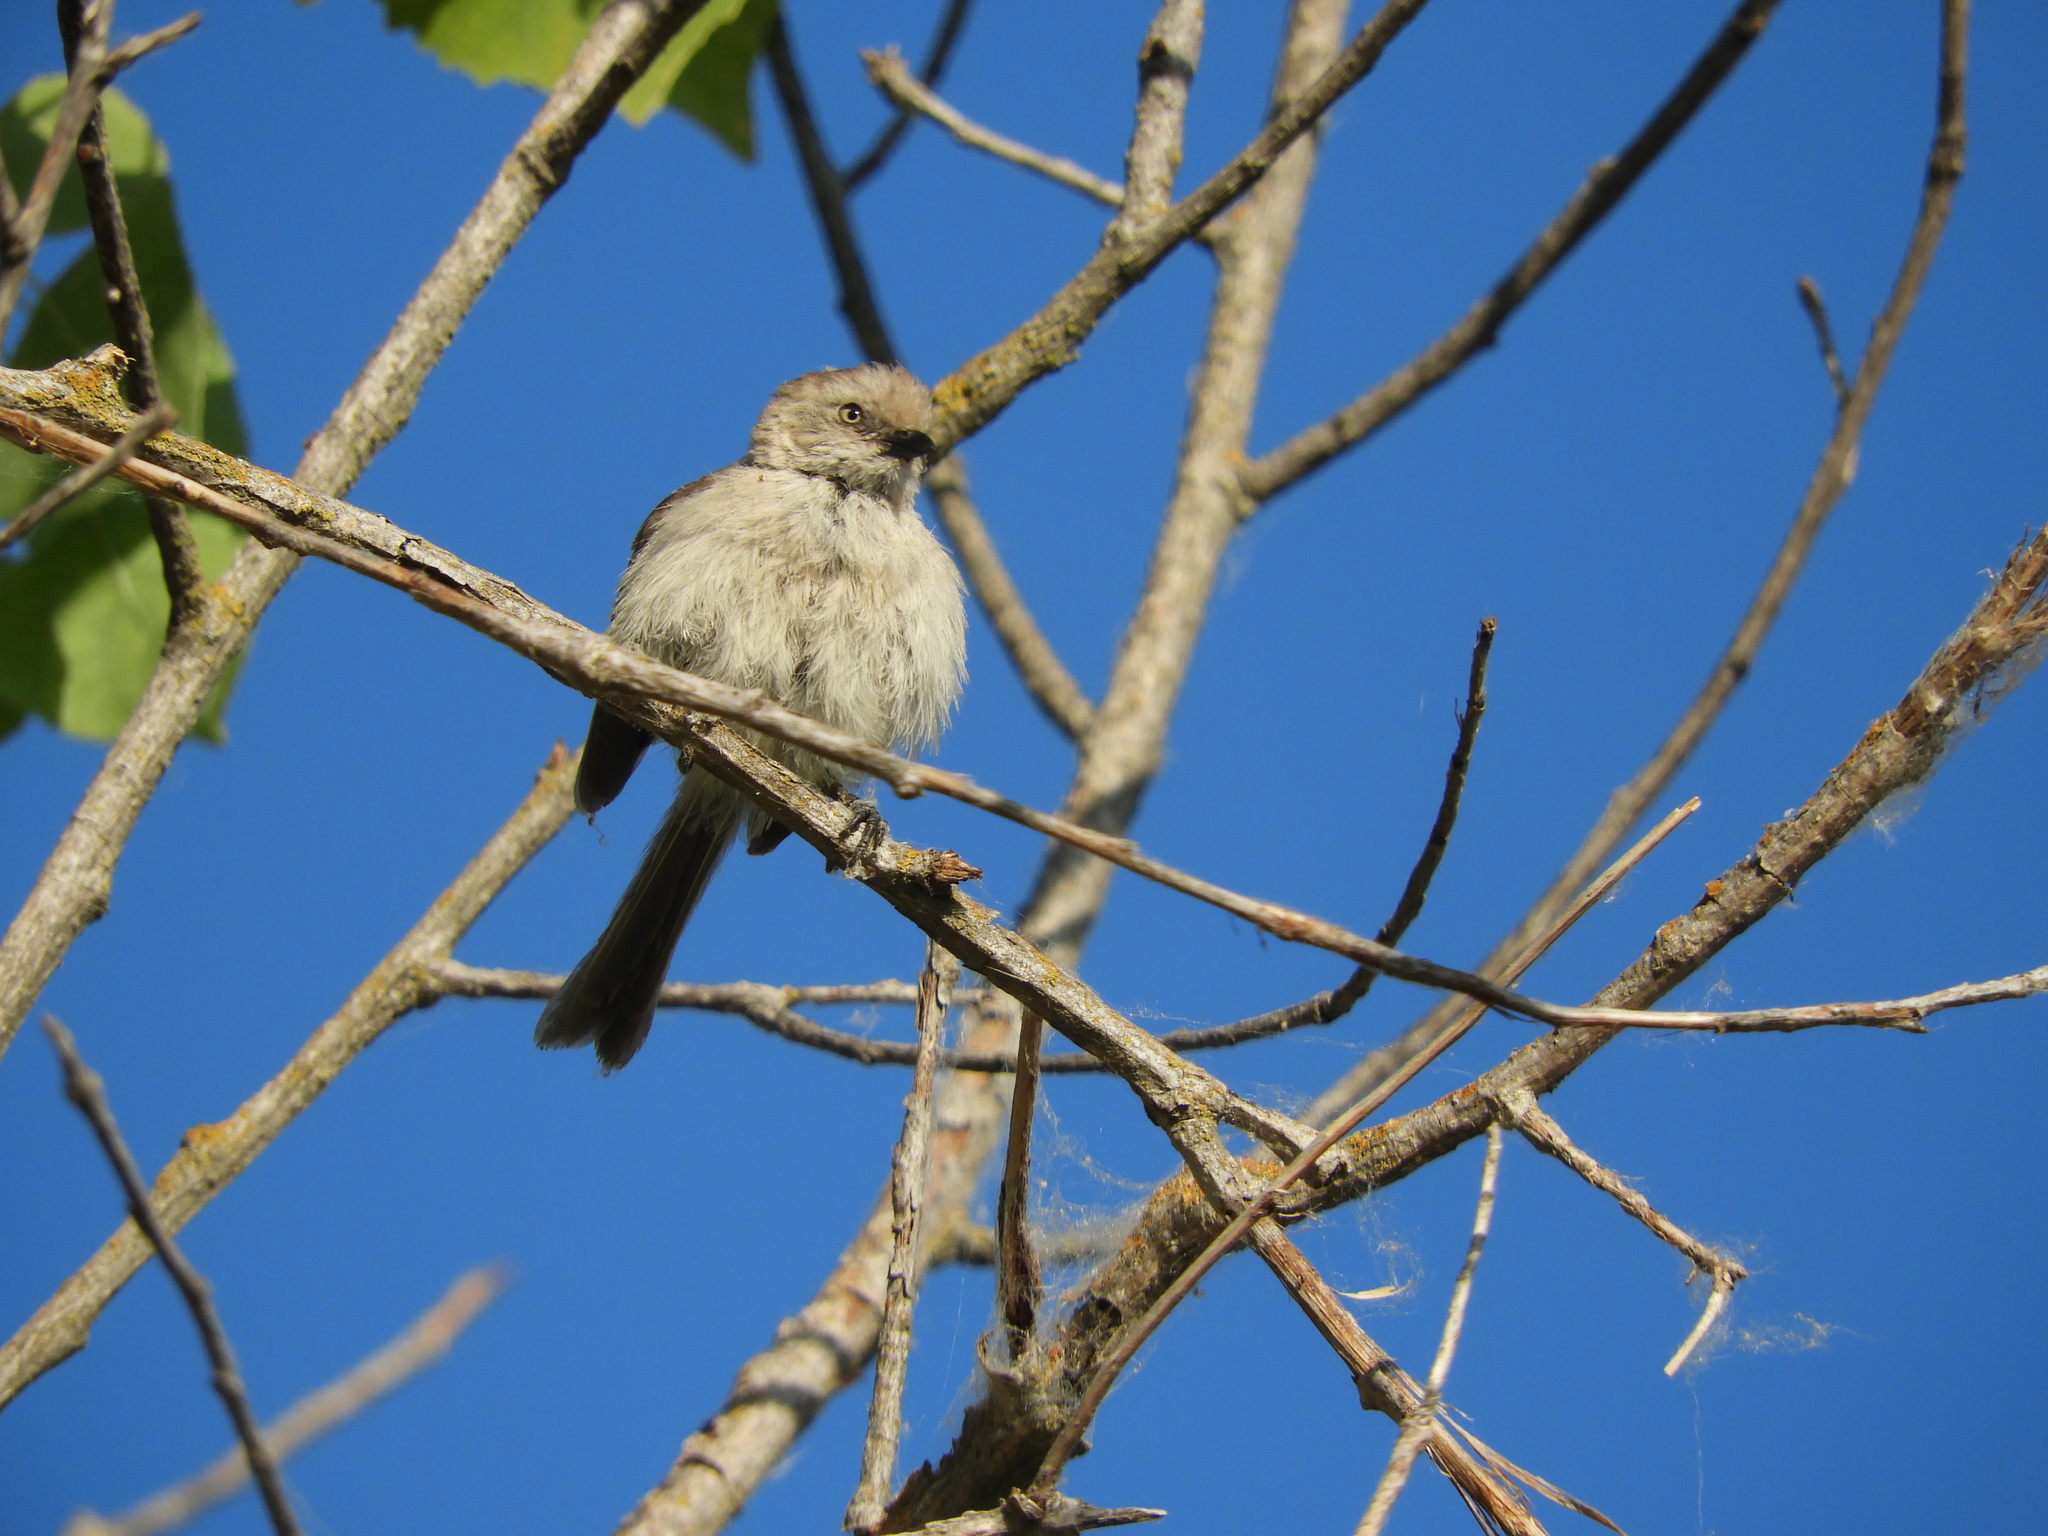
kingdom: Animalia
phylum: Chordata
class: Aves
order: Passeriformes
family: Aegithalidae
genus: Psaltriparus
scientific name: Psaltriparus minimus
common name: American bushtit
